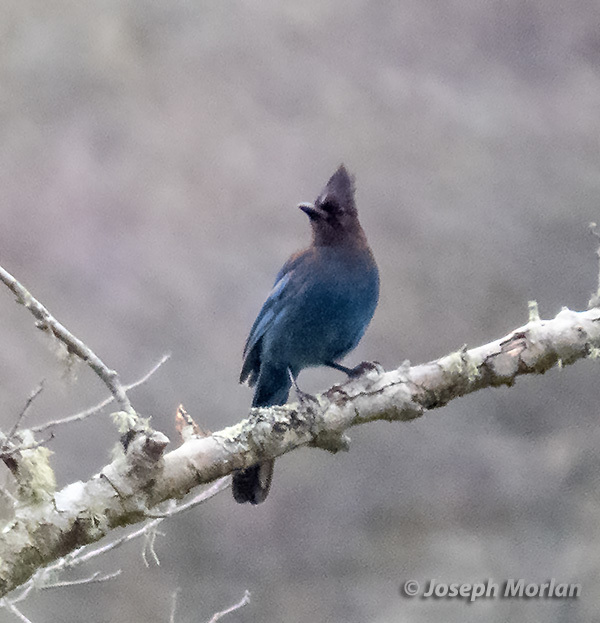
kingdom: Animalia
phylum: Chordata
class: Aves
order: Passeriformes
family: Corvidae
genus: Cyanocitta
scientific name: Cyanocitta stelleri
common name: Steller's jay
